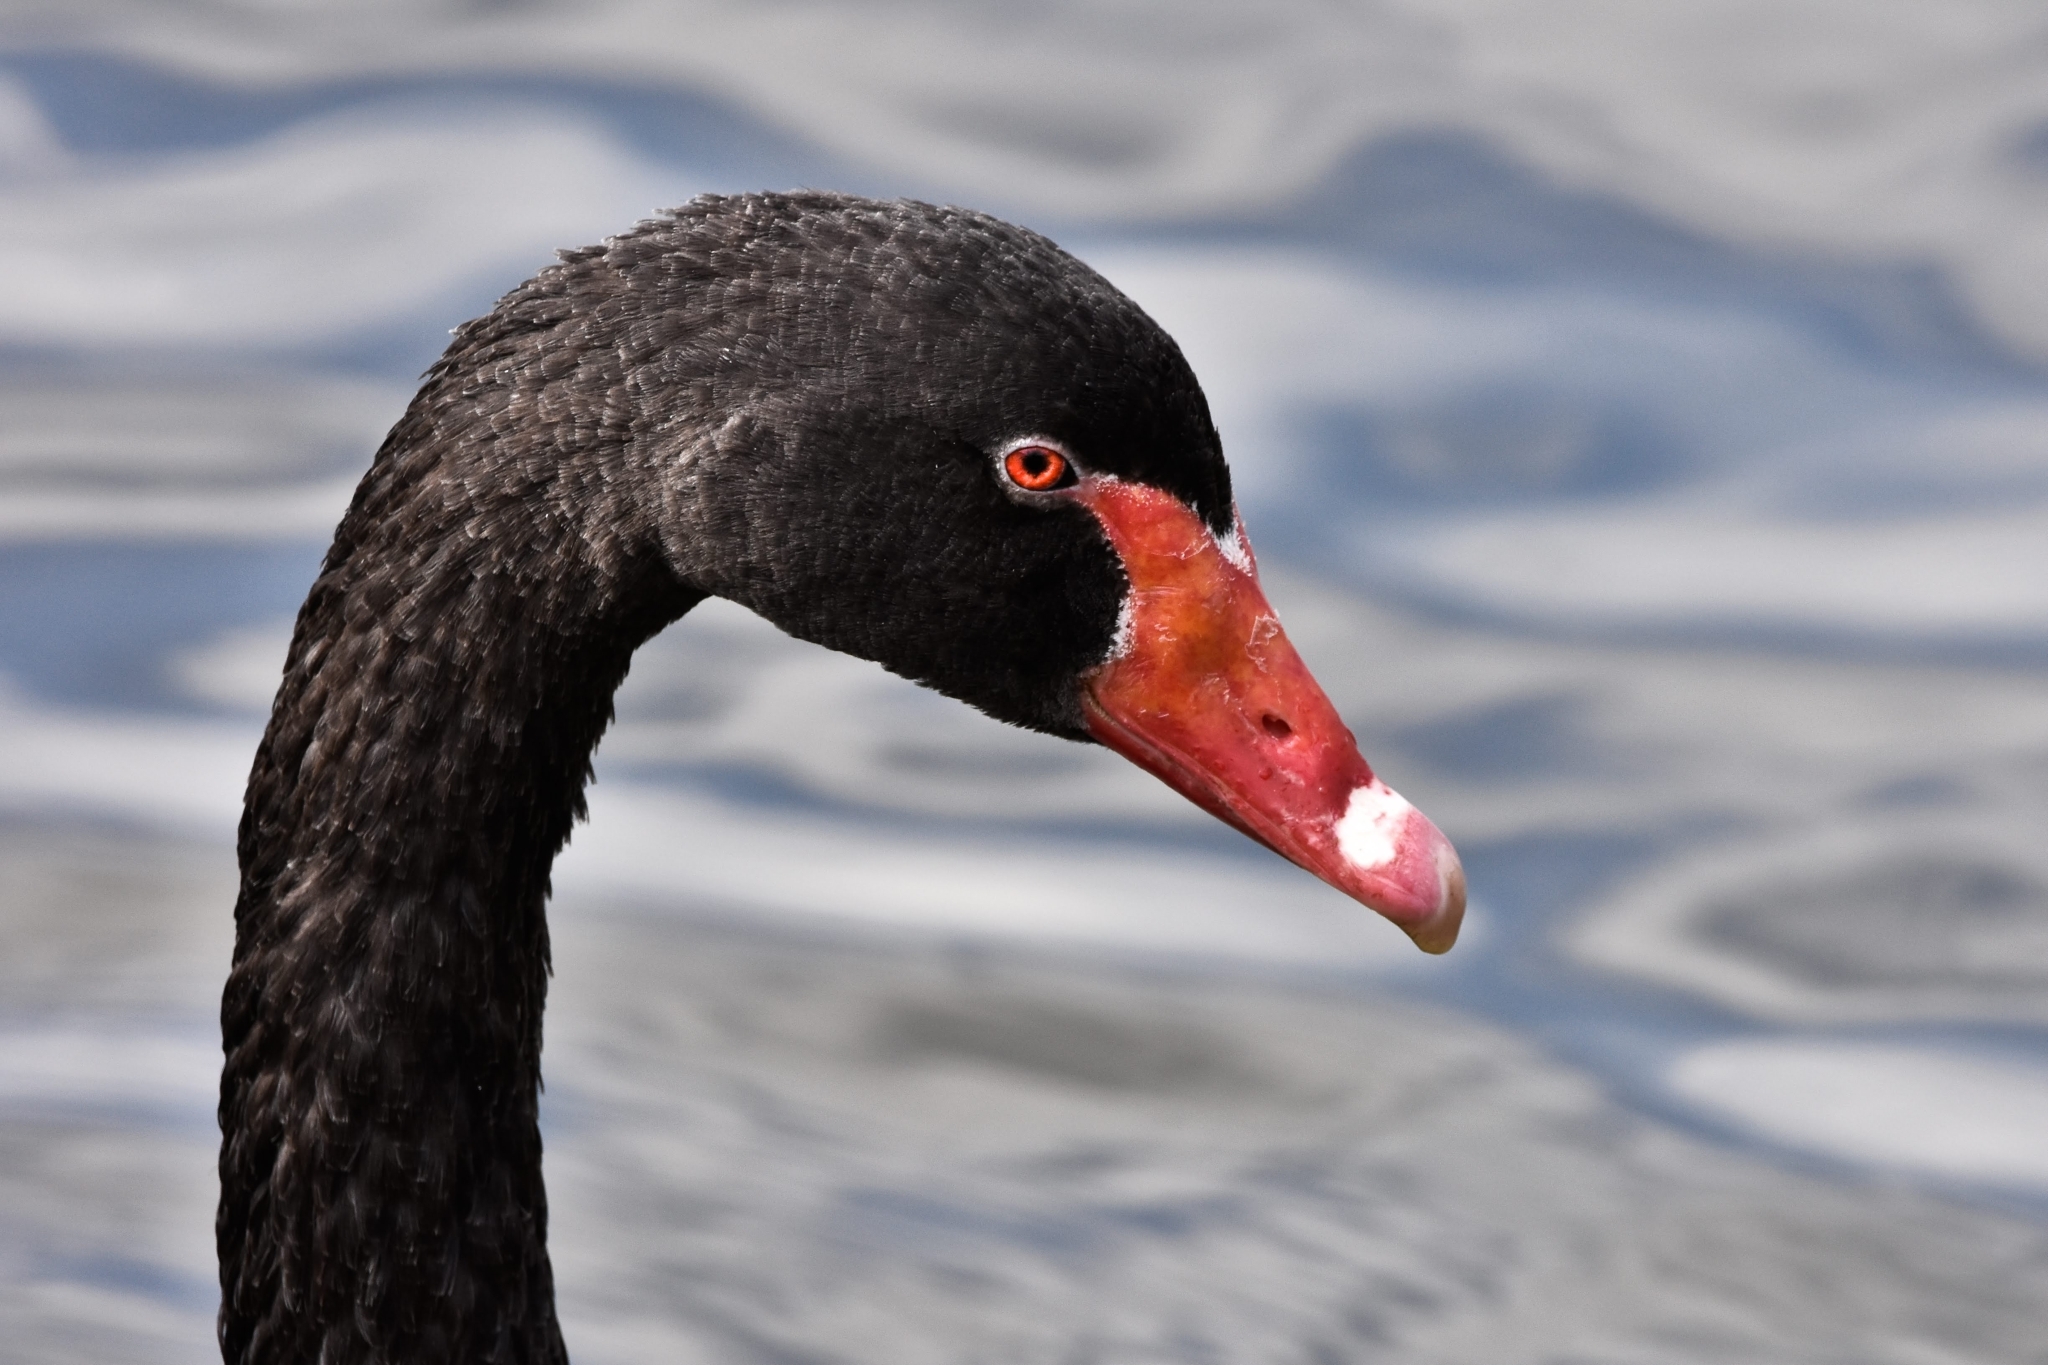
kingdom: Animalia
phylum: Chordata
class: Aves
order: Anseriformes
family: Anatidae
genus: Cygnus
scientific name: Cygnus atratus
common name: Black swan
